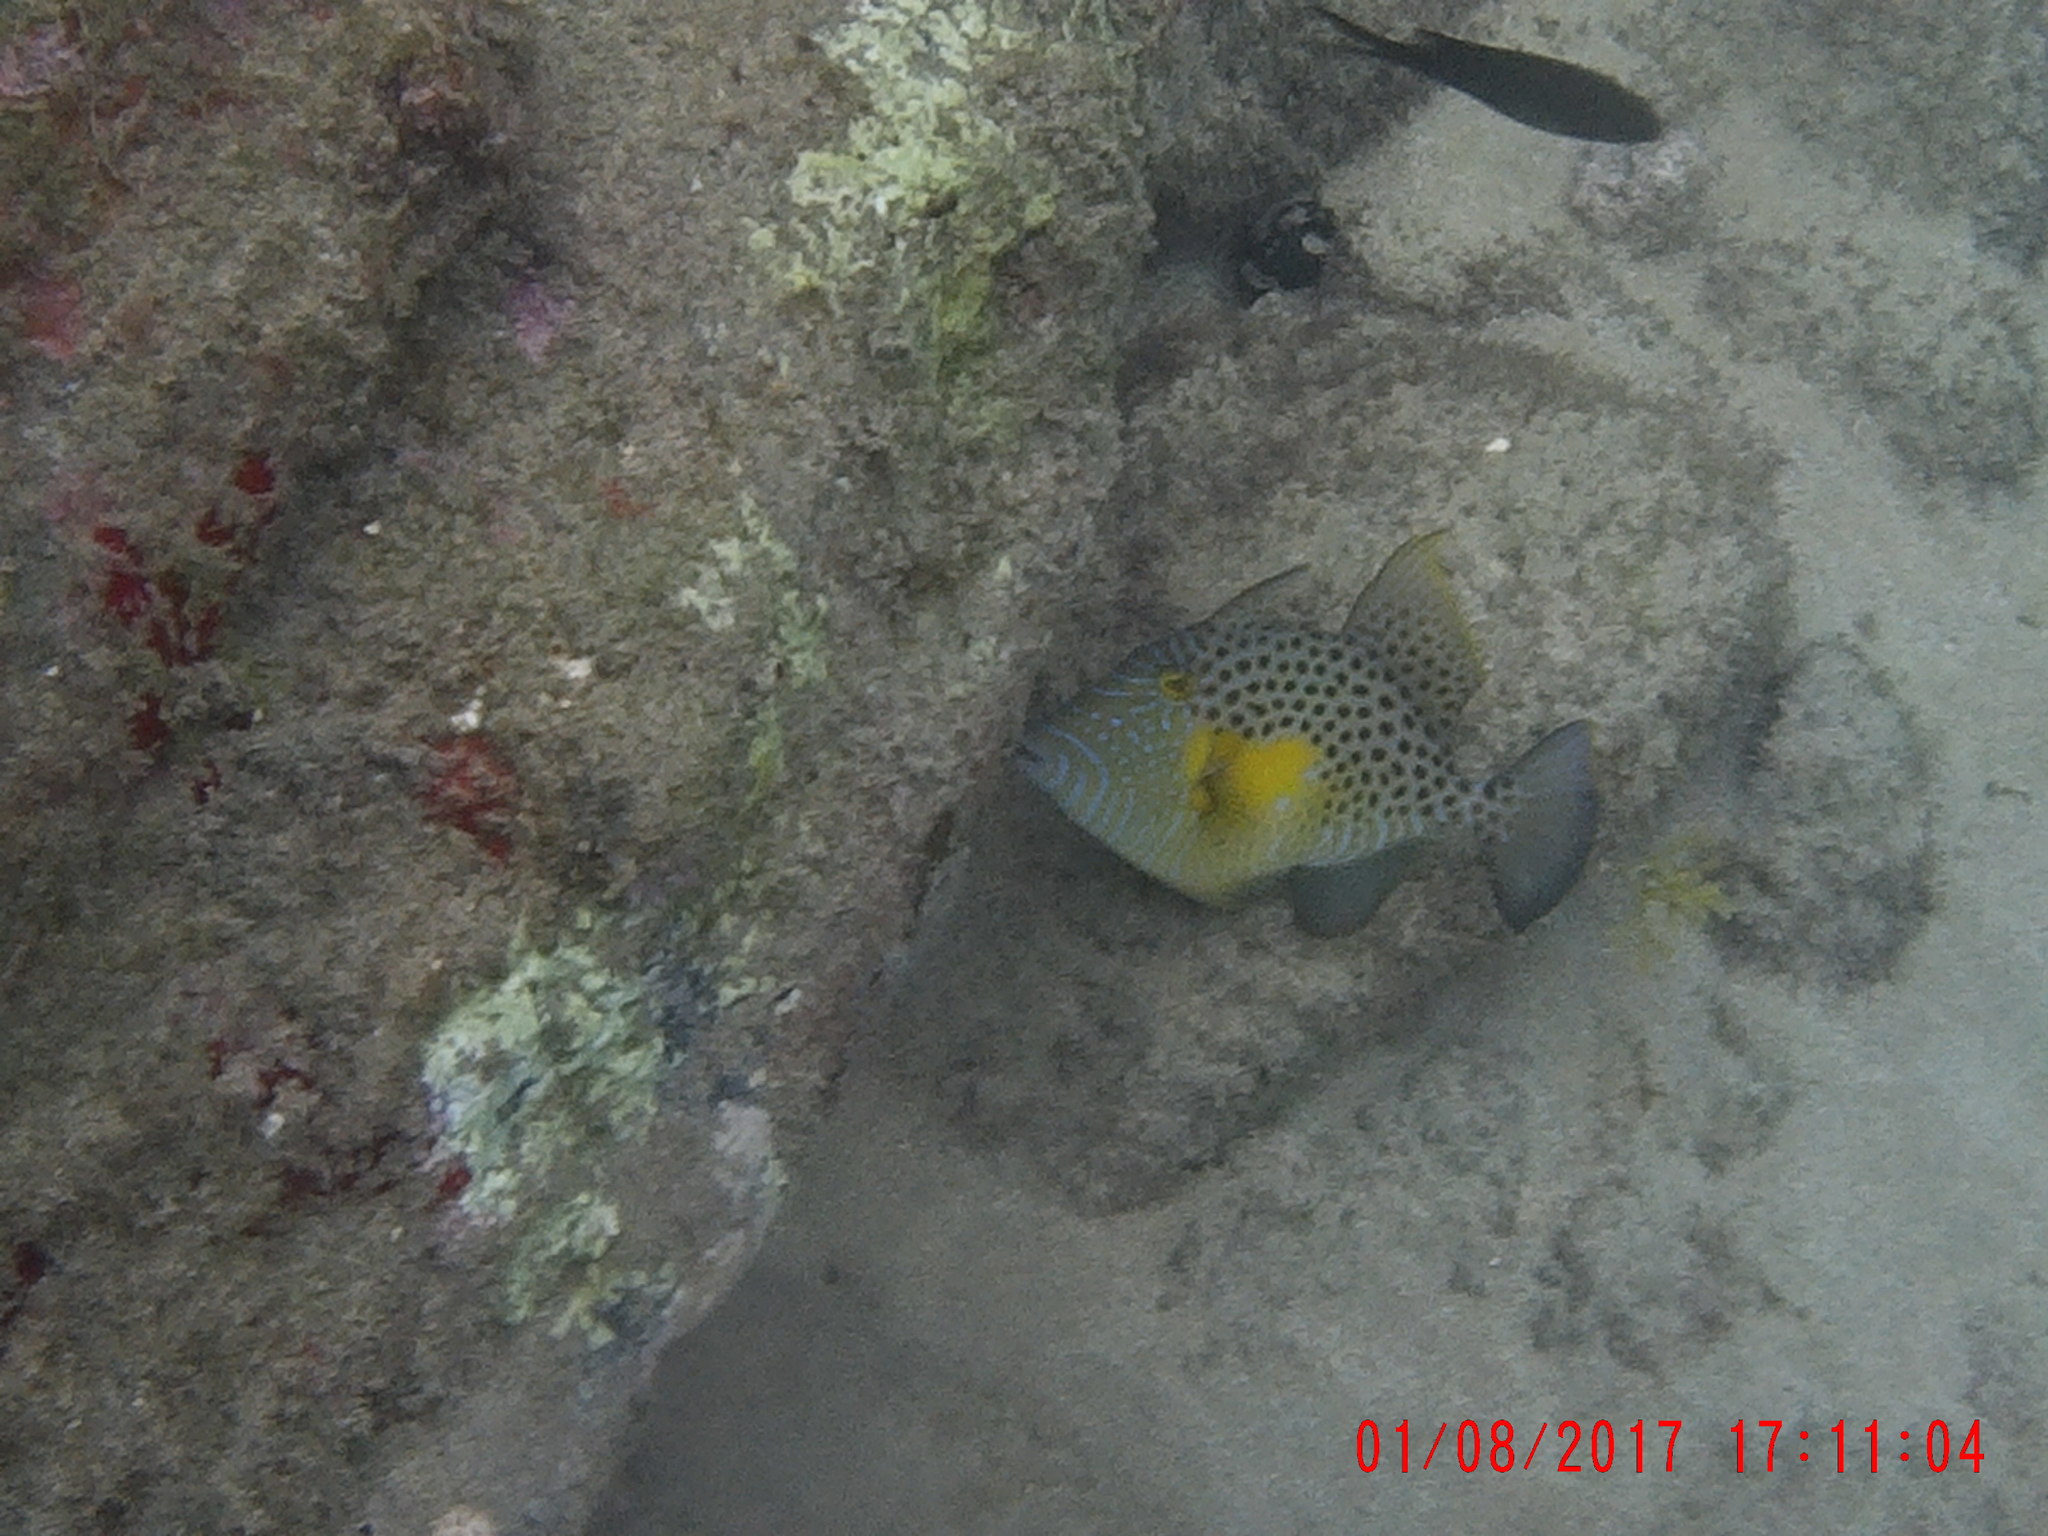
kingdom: Animalia
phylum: Chordata
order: Tetraodontiformes
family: Balistidae
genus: Balistes
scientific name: Balistes punctatus
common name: Bluespotted triggerfish
